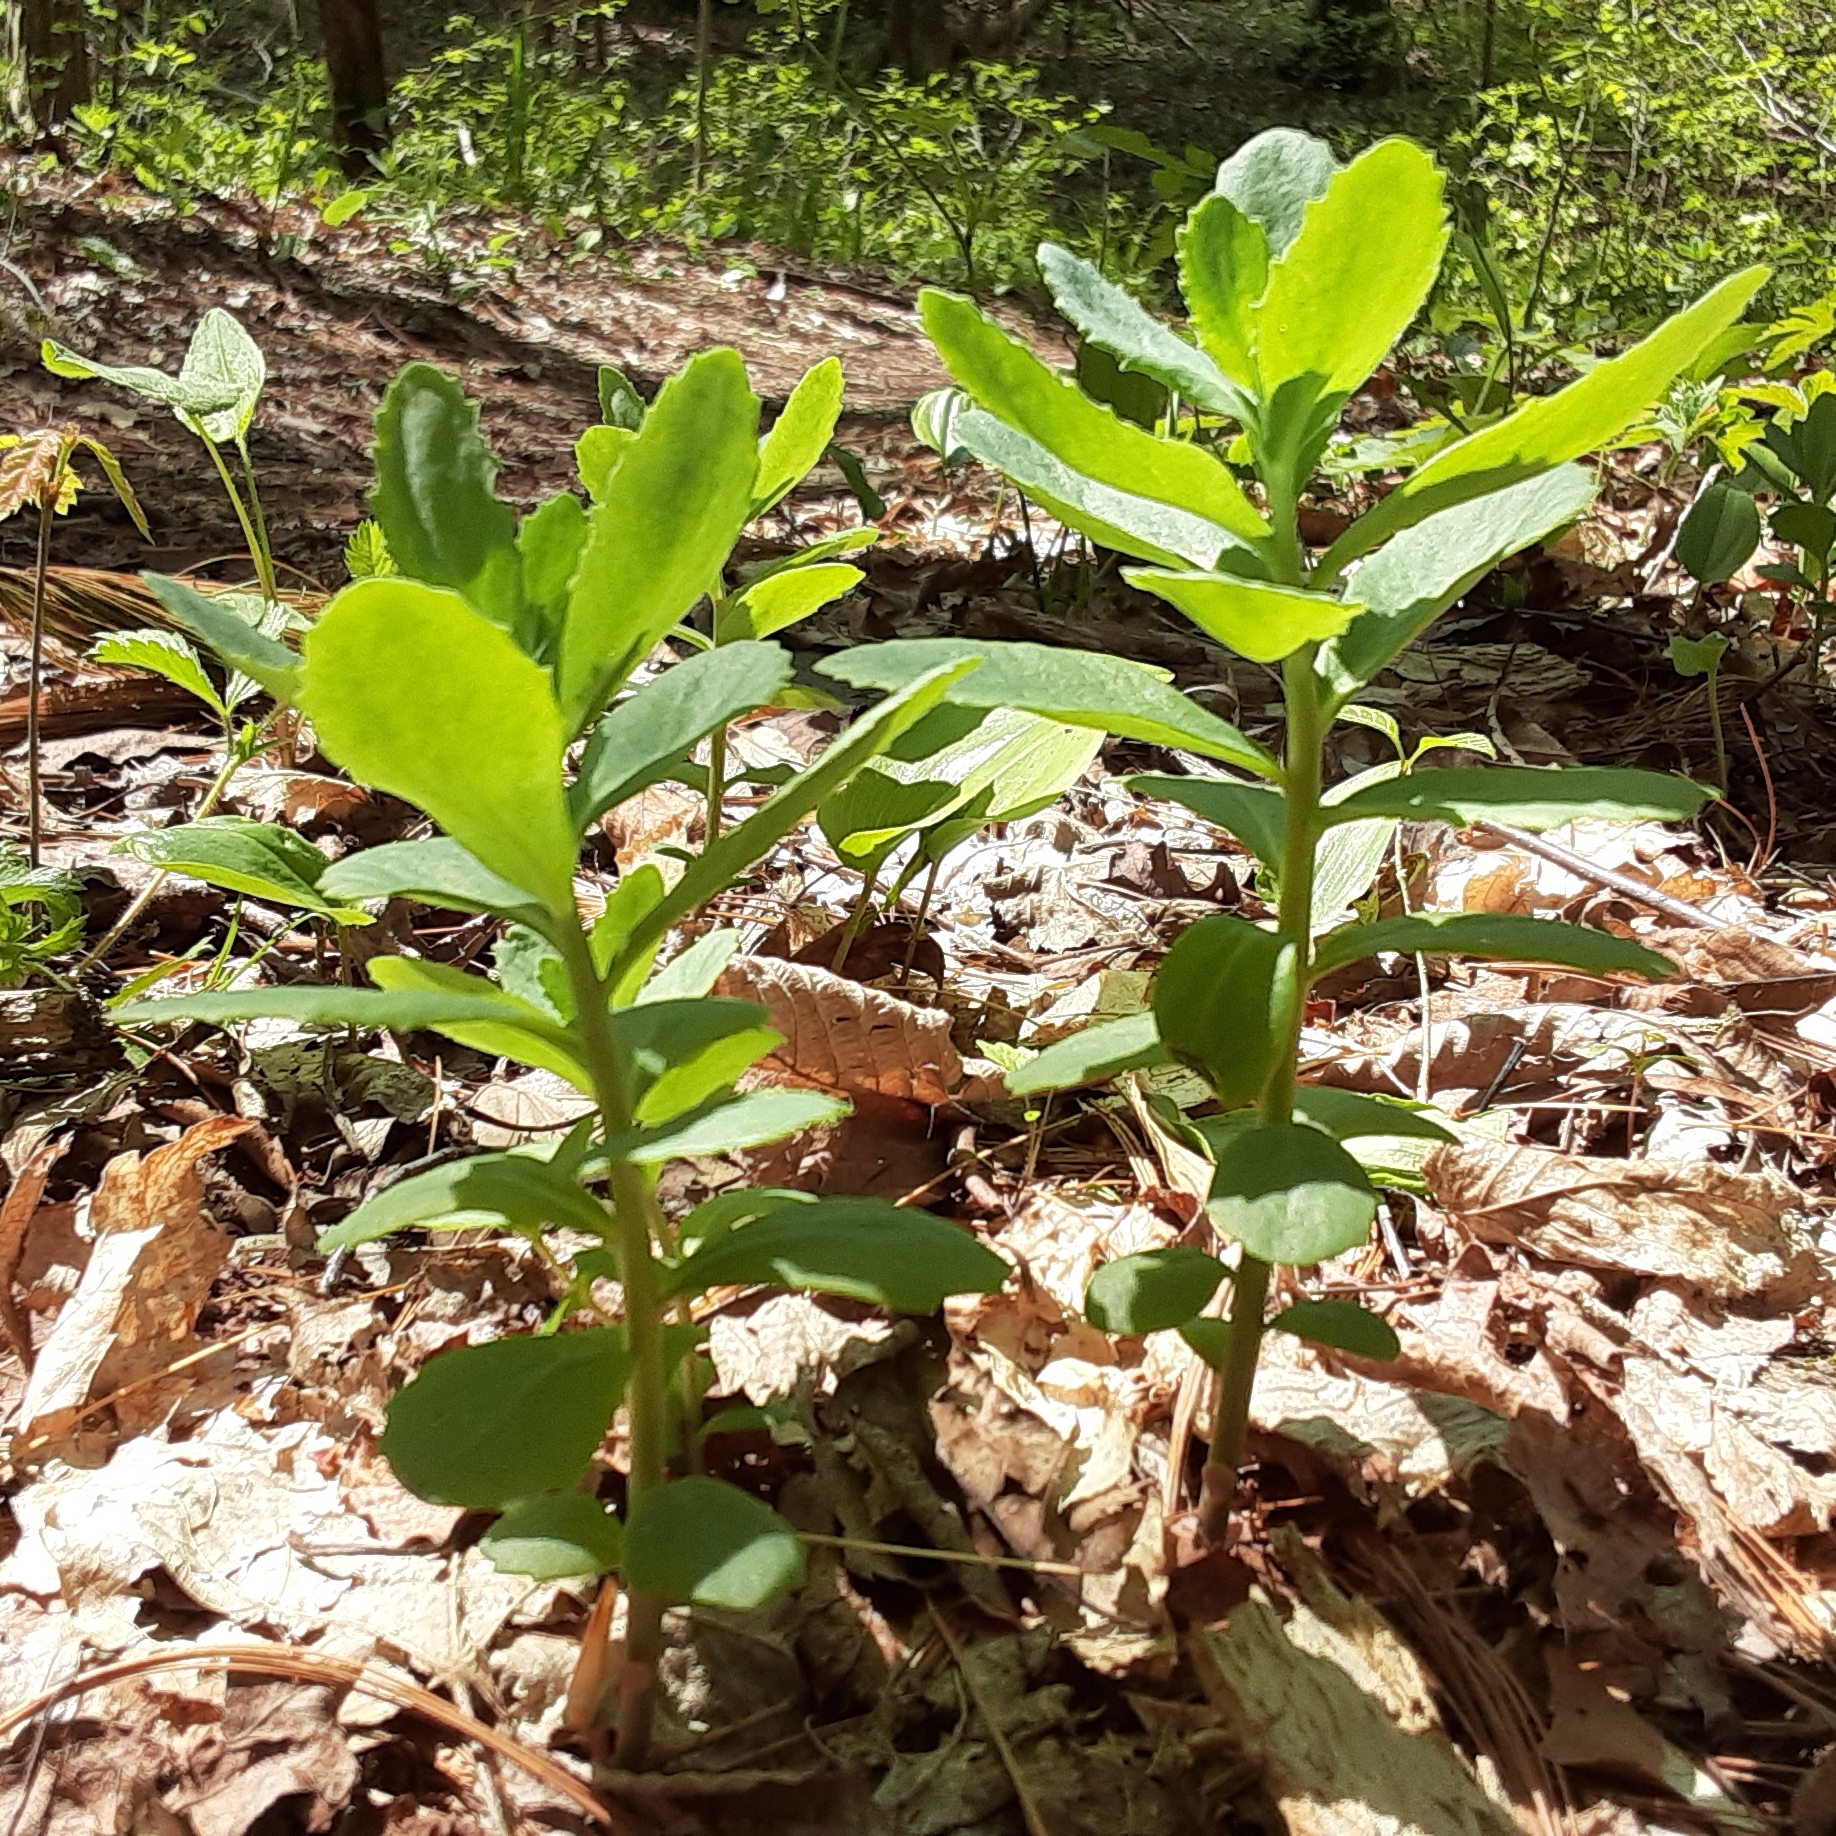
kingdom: Plantae
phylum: Tracheophyta
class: Magnoliopsida
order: Saxifragales
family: Crassulaceae
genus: Hylotelephium
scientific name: Hylotelephium telephium
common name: Live-forever
